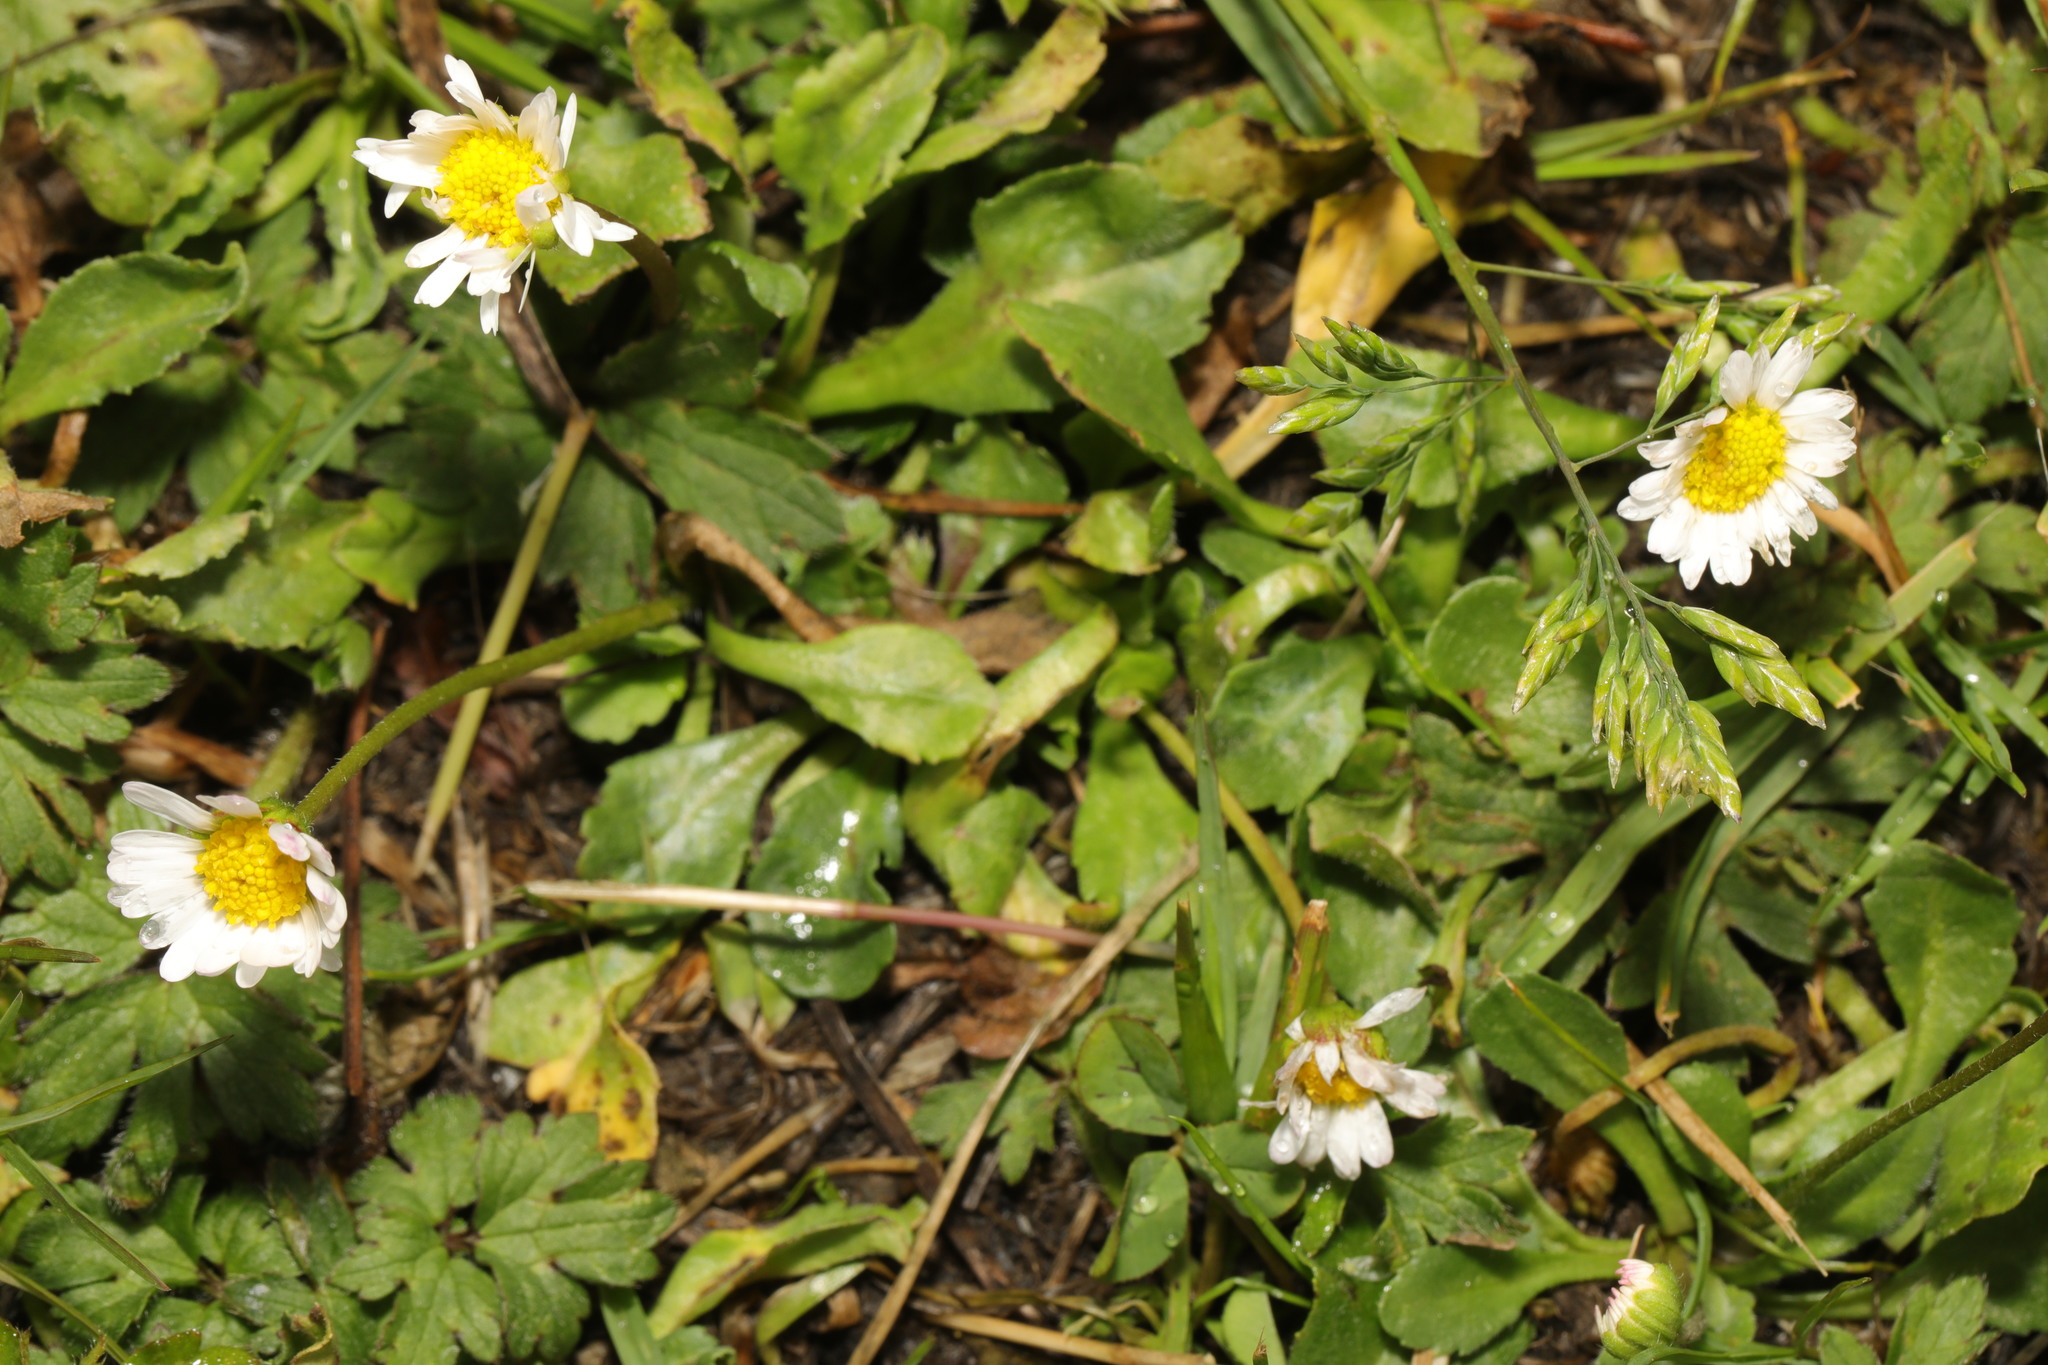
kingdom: Plantae
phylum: Tracheophyta
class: Magnoliopsida
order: Asterales
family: Asteraceae
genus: Bellis
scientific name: Bellis perennis
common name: Lawndaisy
